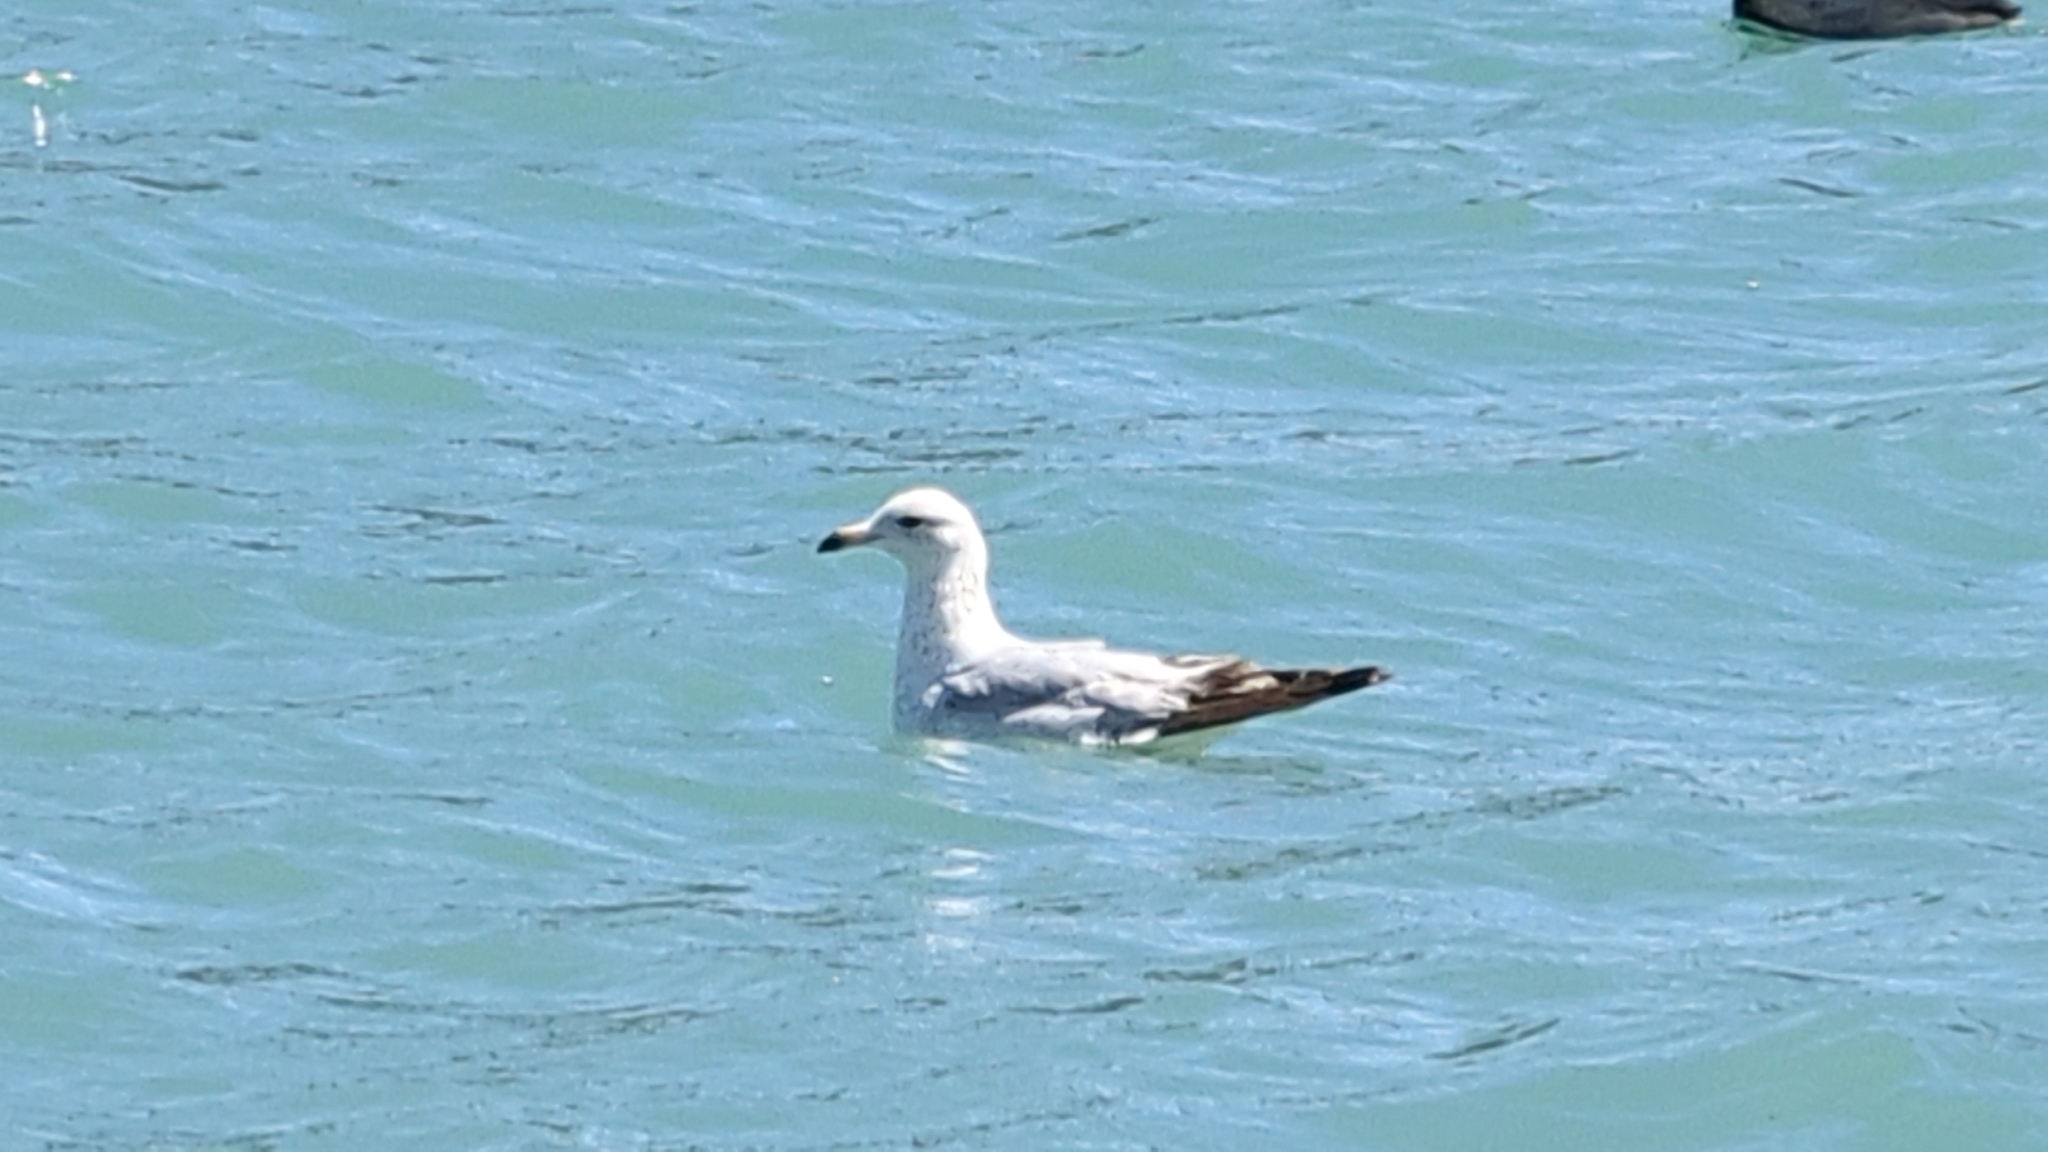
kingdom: Animalia
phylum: Chordata
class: Aves
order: Charadriiformes
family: Laridae
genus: Larus
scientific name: Larus delawarensis
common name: Ring-billed gull
